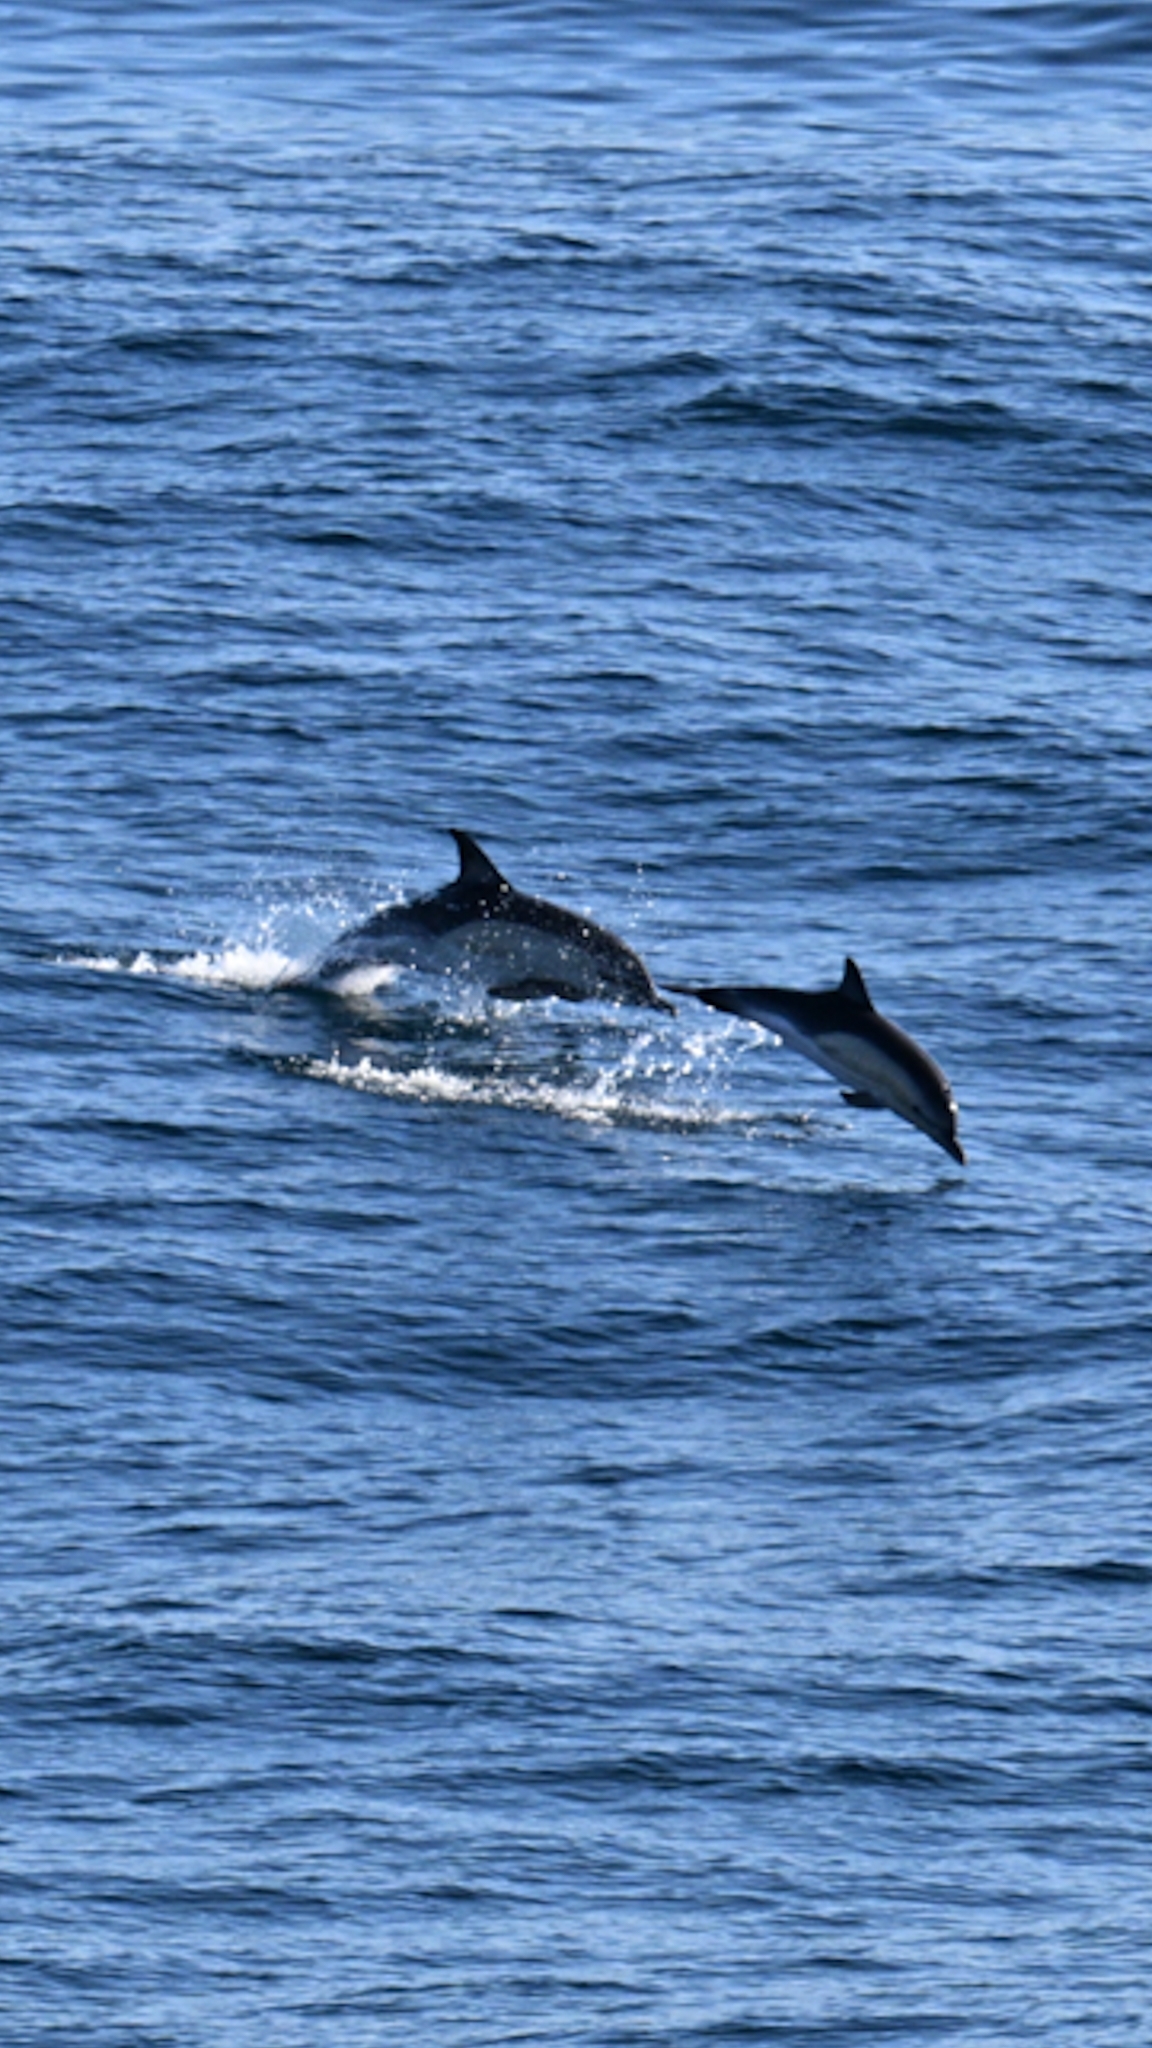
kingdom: Animalia
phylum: Chordata
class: Mammalia
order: Cetacea
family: Delphinidae
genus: Delphinus
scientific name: Delphinus delphis
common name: Common dolphin
